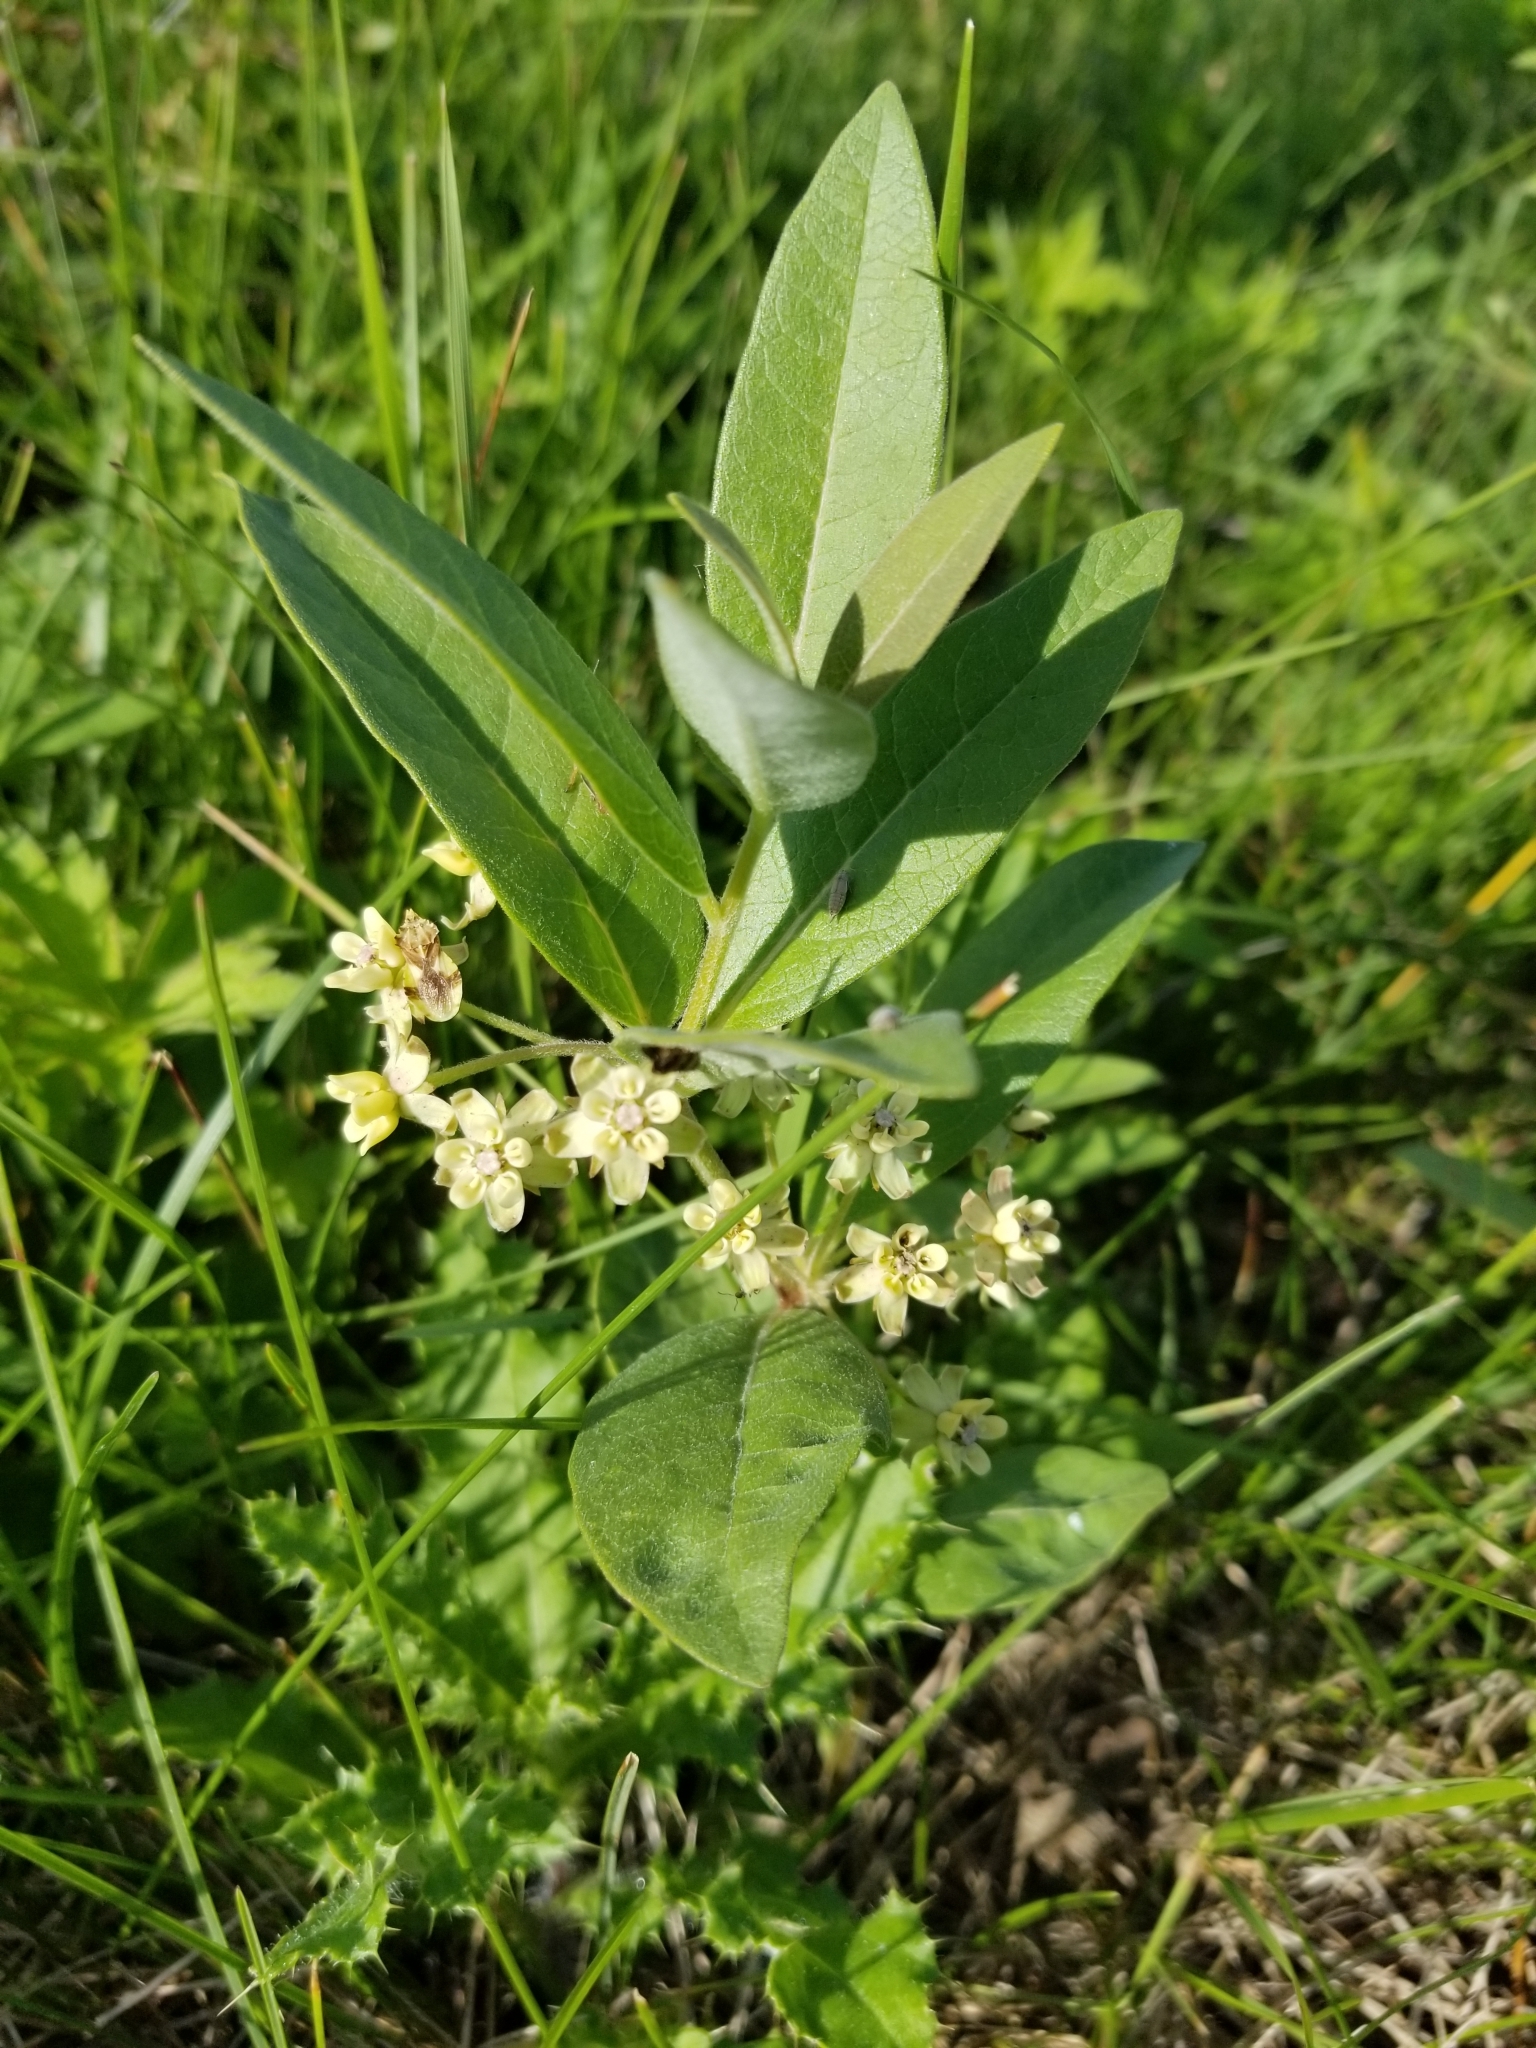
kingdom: Plantae
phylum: Tracheophyta
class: Magnoliopsida
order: Gentianales
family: Apocynaceae
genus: Asclepias
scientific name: Asclepias ovalifolia
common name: Dwarf milkweed
